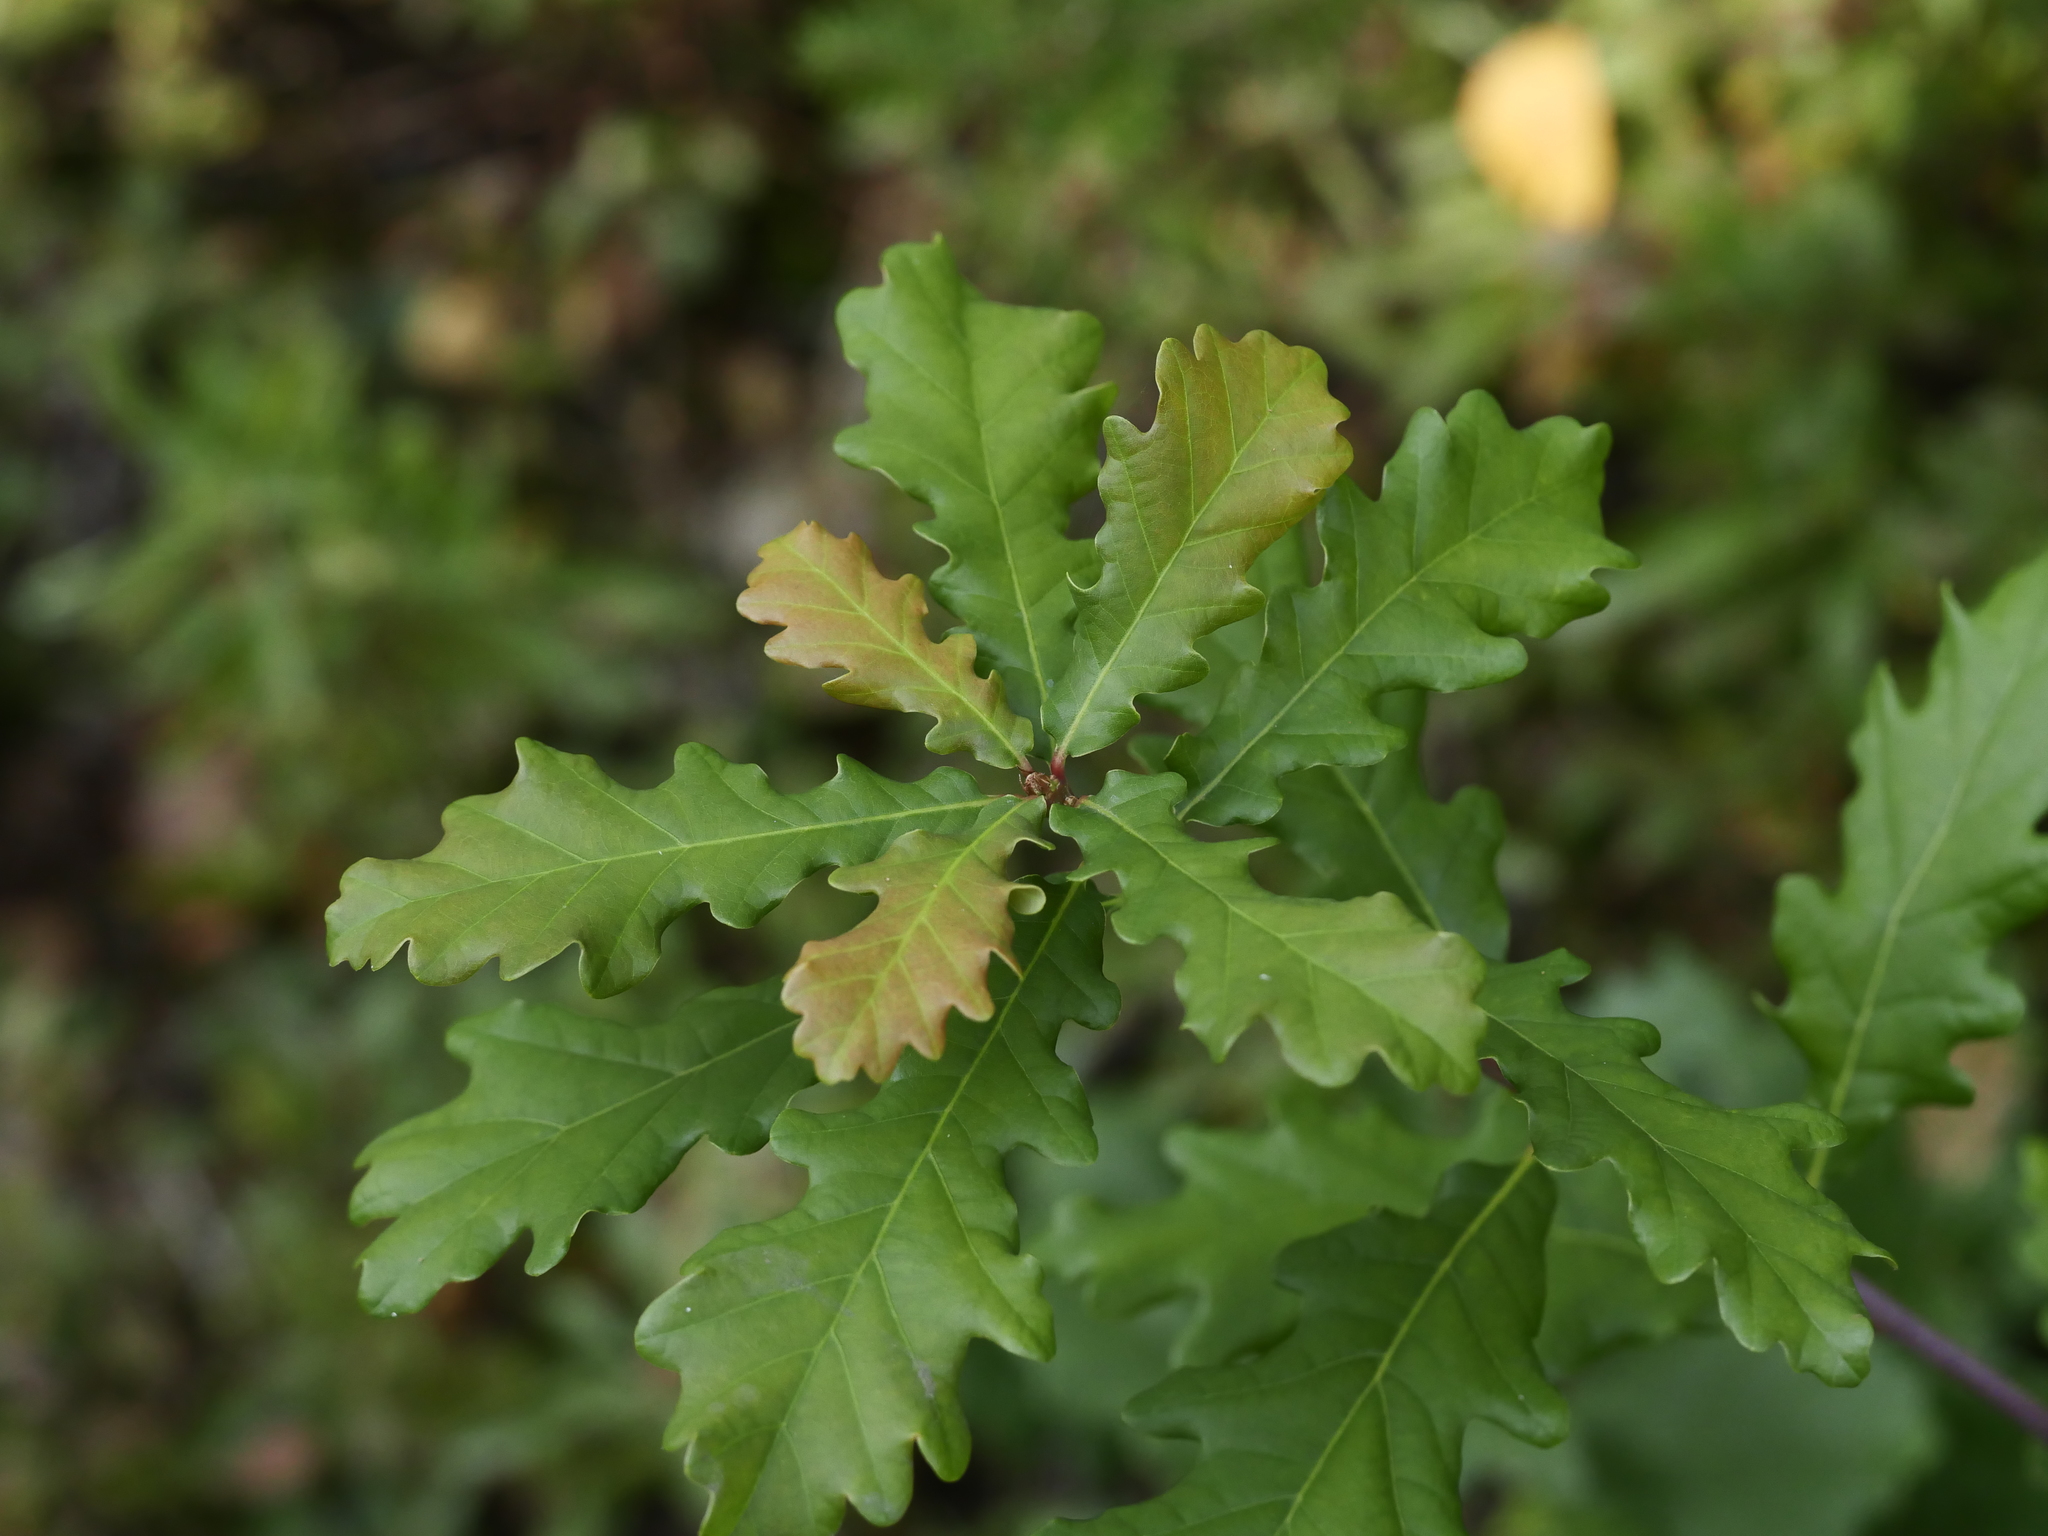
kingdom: Plantae
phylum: Tracheophyta
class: Magnoliopsida
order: Fagales
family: Fagaceae
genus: Quercus
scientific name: Quercus robur
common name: Pedunculate oak
